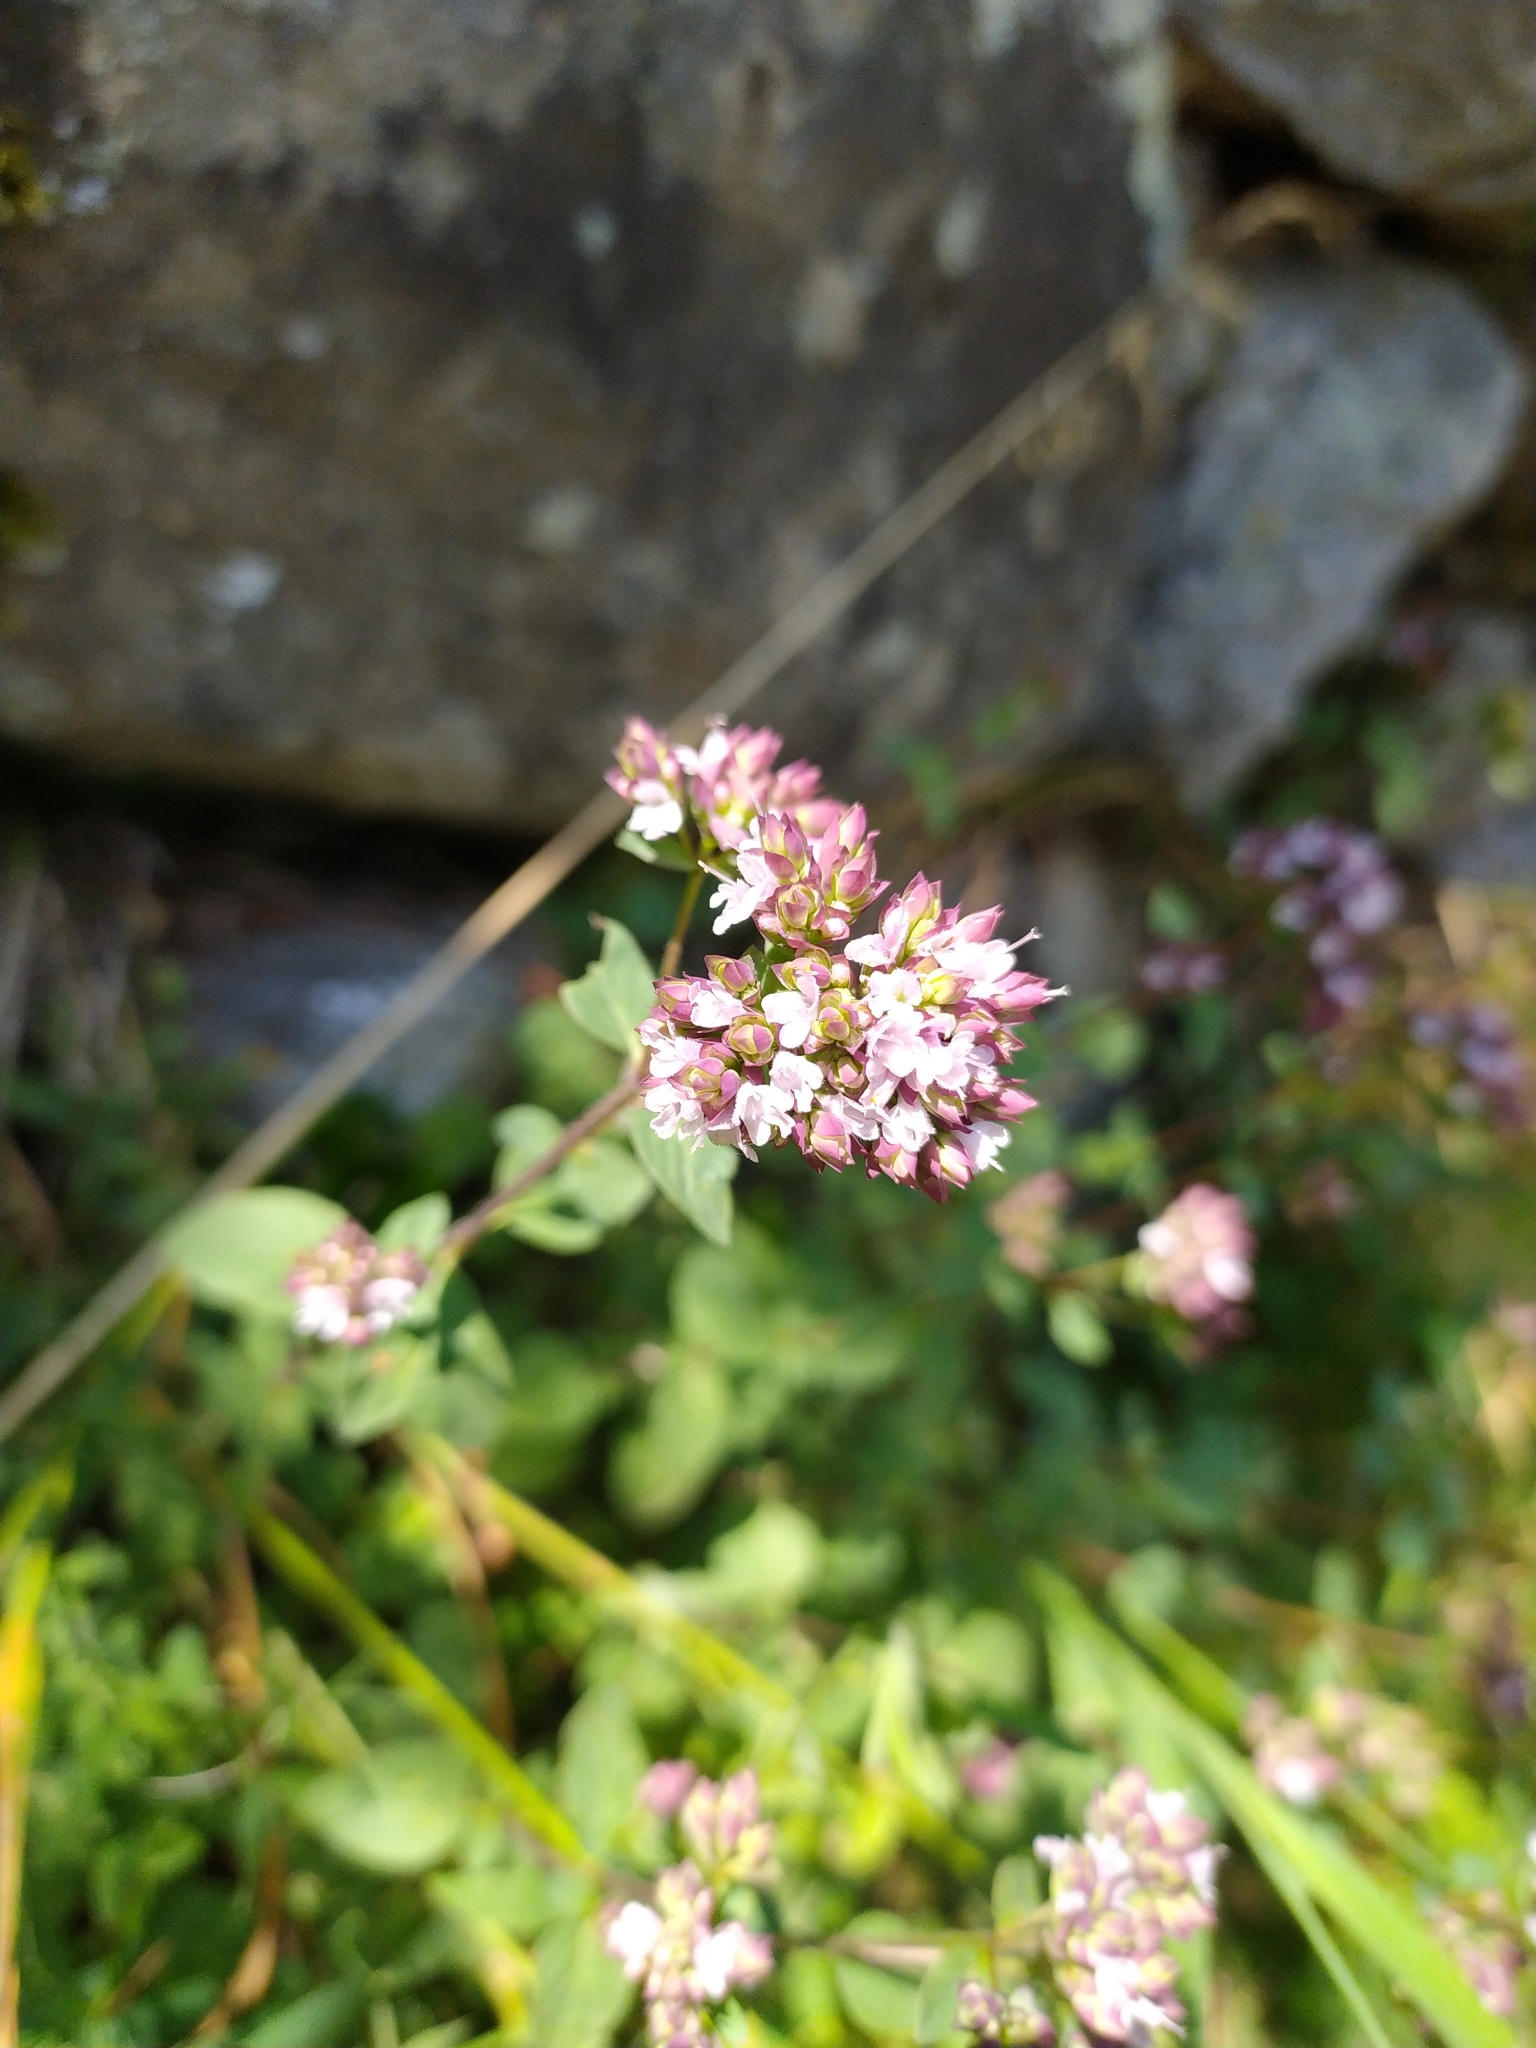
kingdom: Plantae
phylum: Tracheophyta
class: Magnoliopsida
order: Lamiales
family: Lamiaceae
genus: Origanum
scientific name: Origanum vulgare
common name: Wild marjoram
